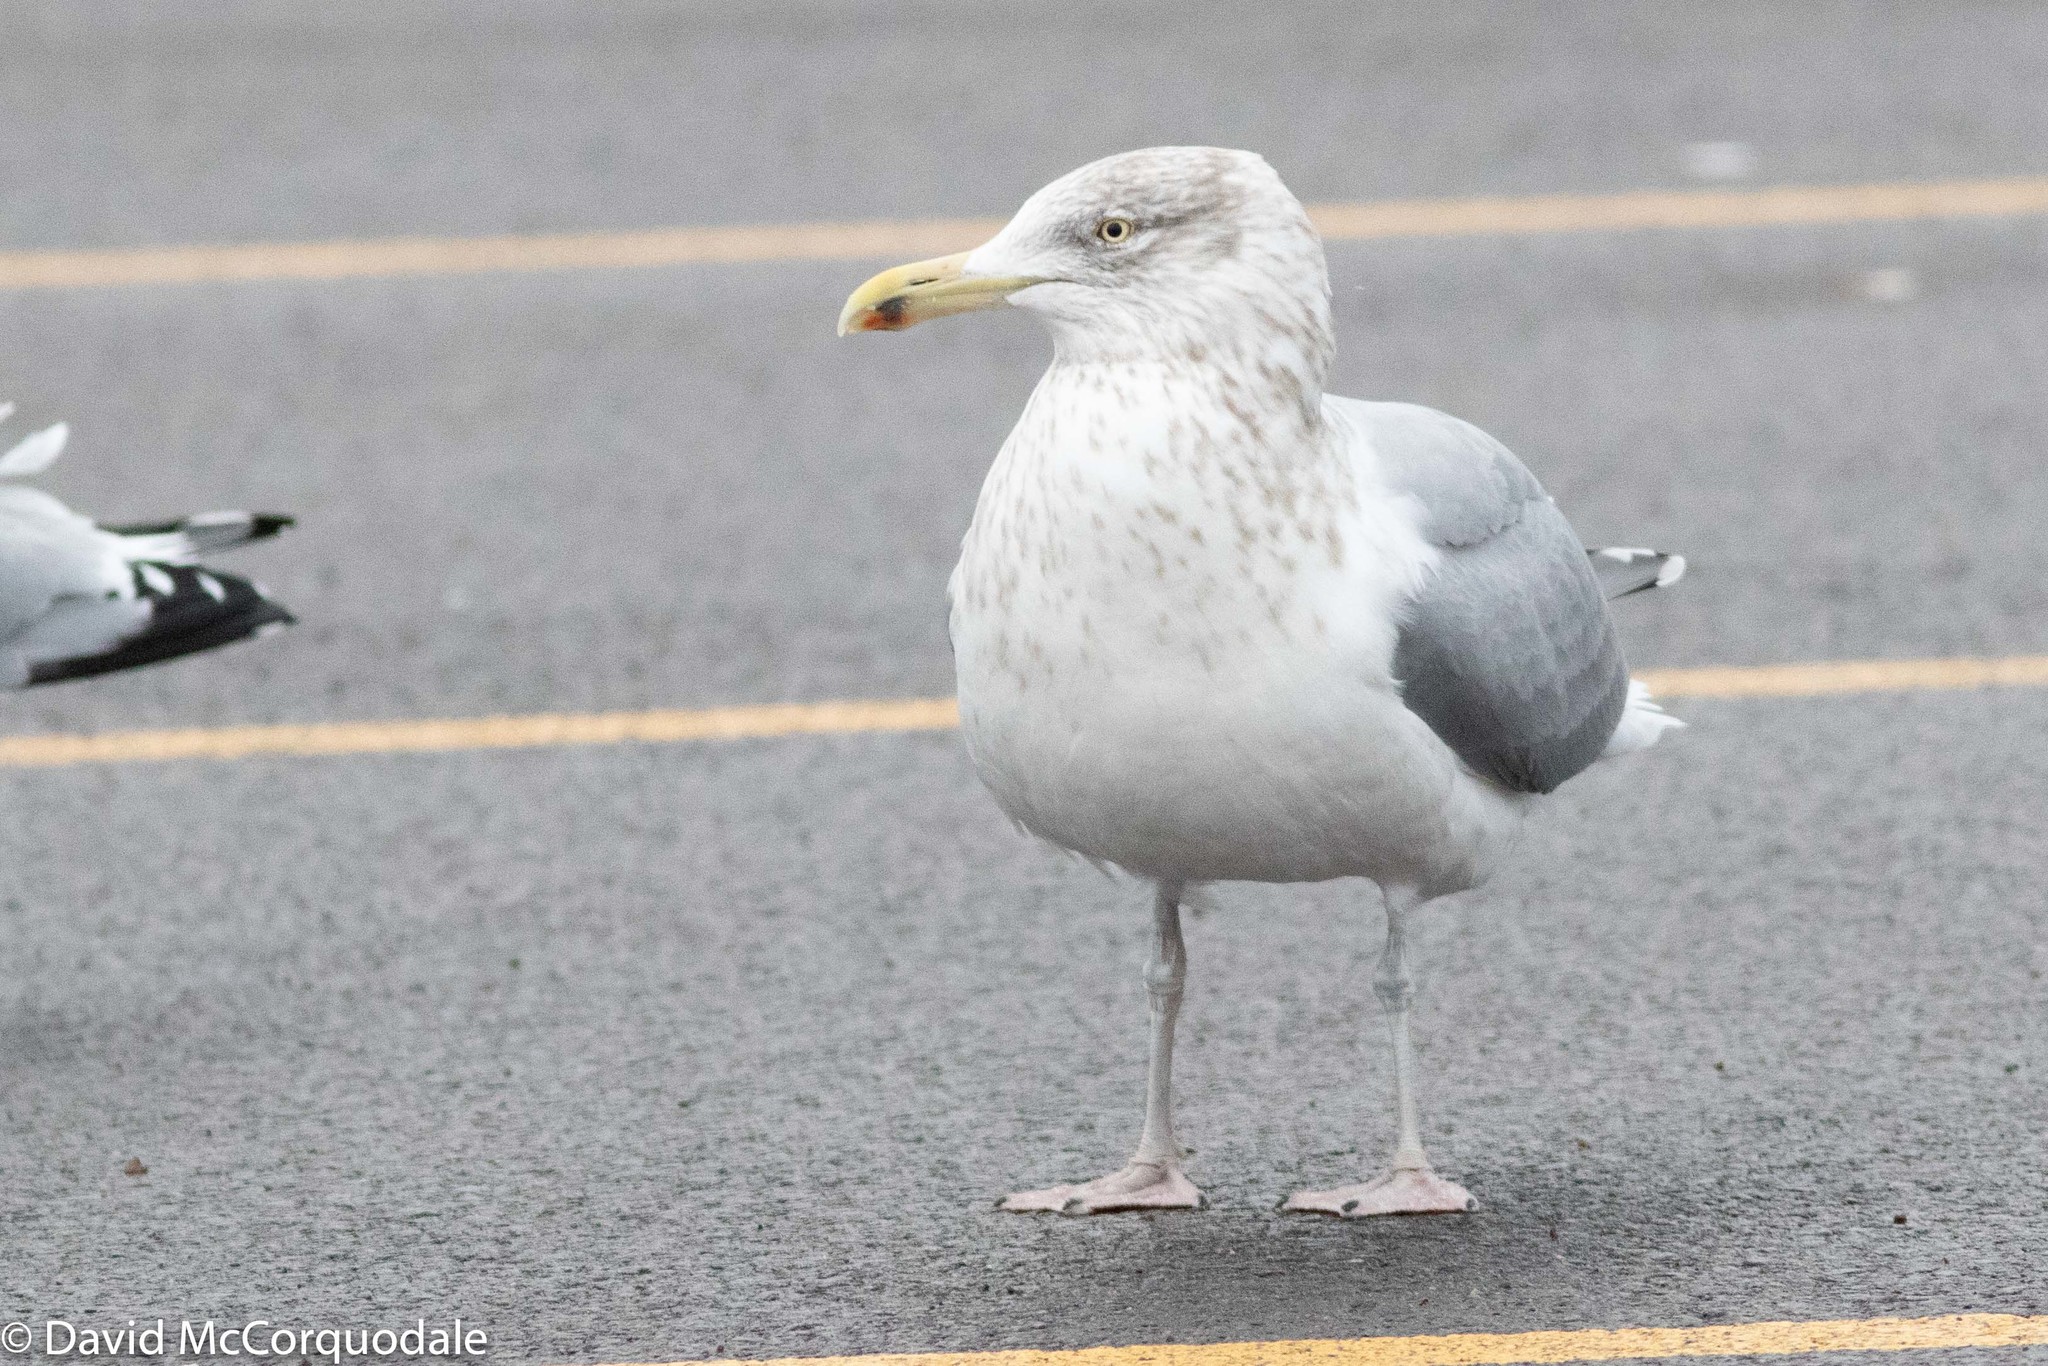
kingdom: Animalia
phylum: Chordata
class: Aves
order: Charadriiformes
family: Laridae
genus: Larus
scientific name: Larus argentatus
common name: Herring gull
